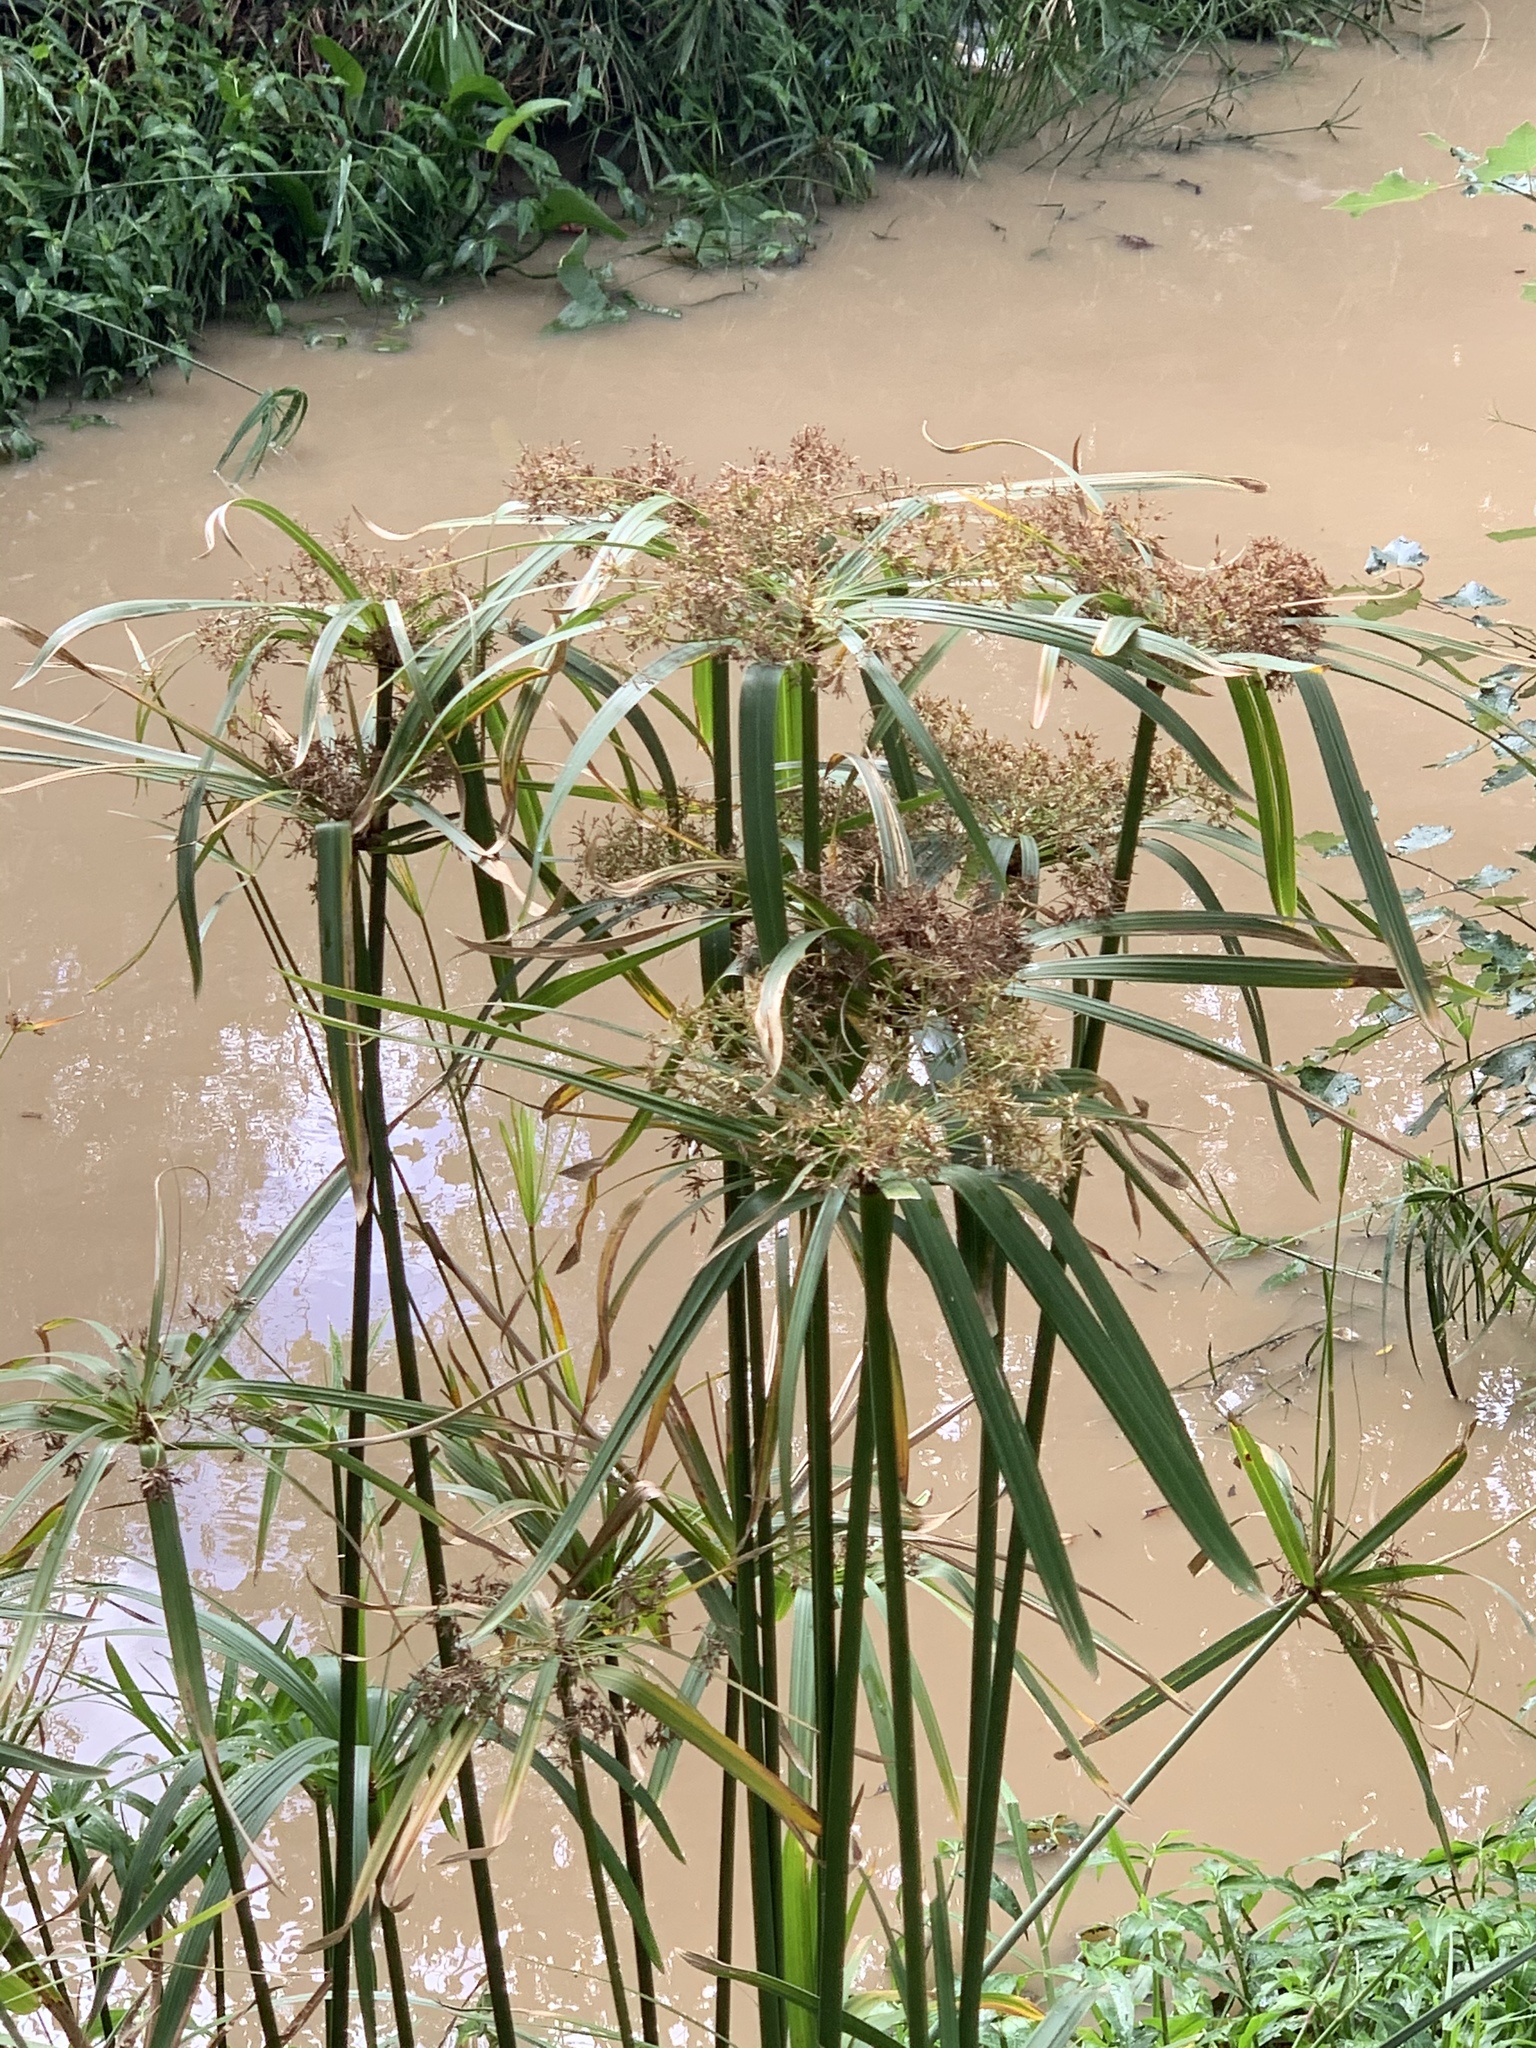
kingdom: Plantae
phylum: Tracheophyta
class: Liliopsida
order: Poales
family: Cyperaceae
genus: Cyperus
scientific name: Cyperus textilis
